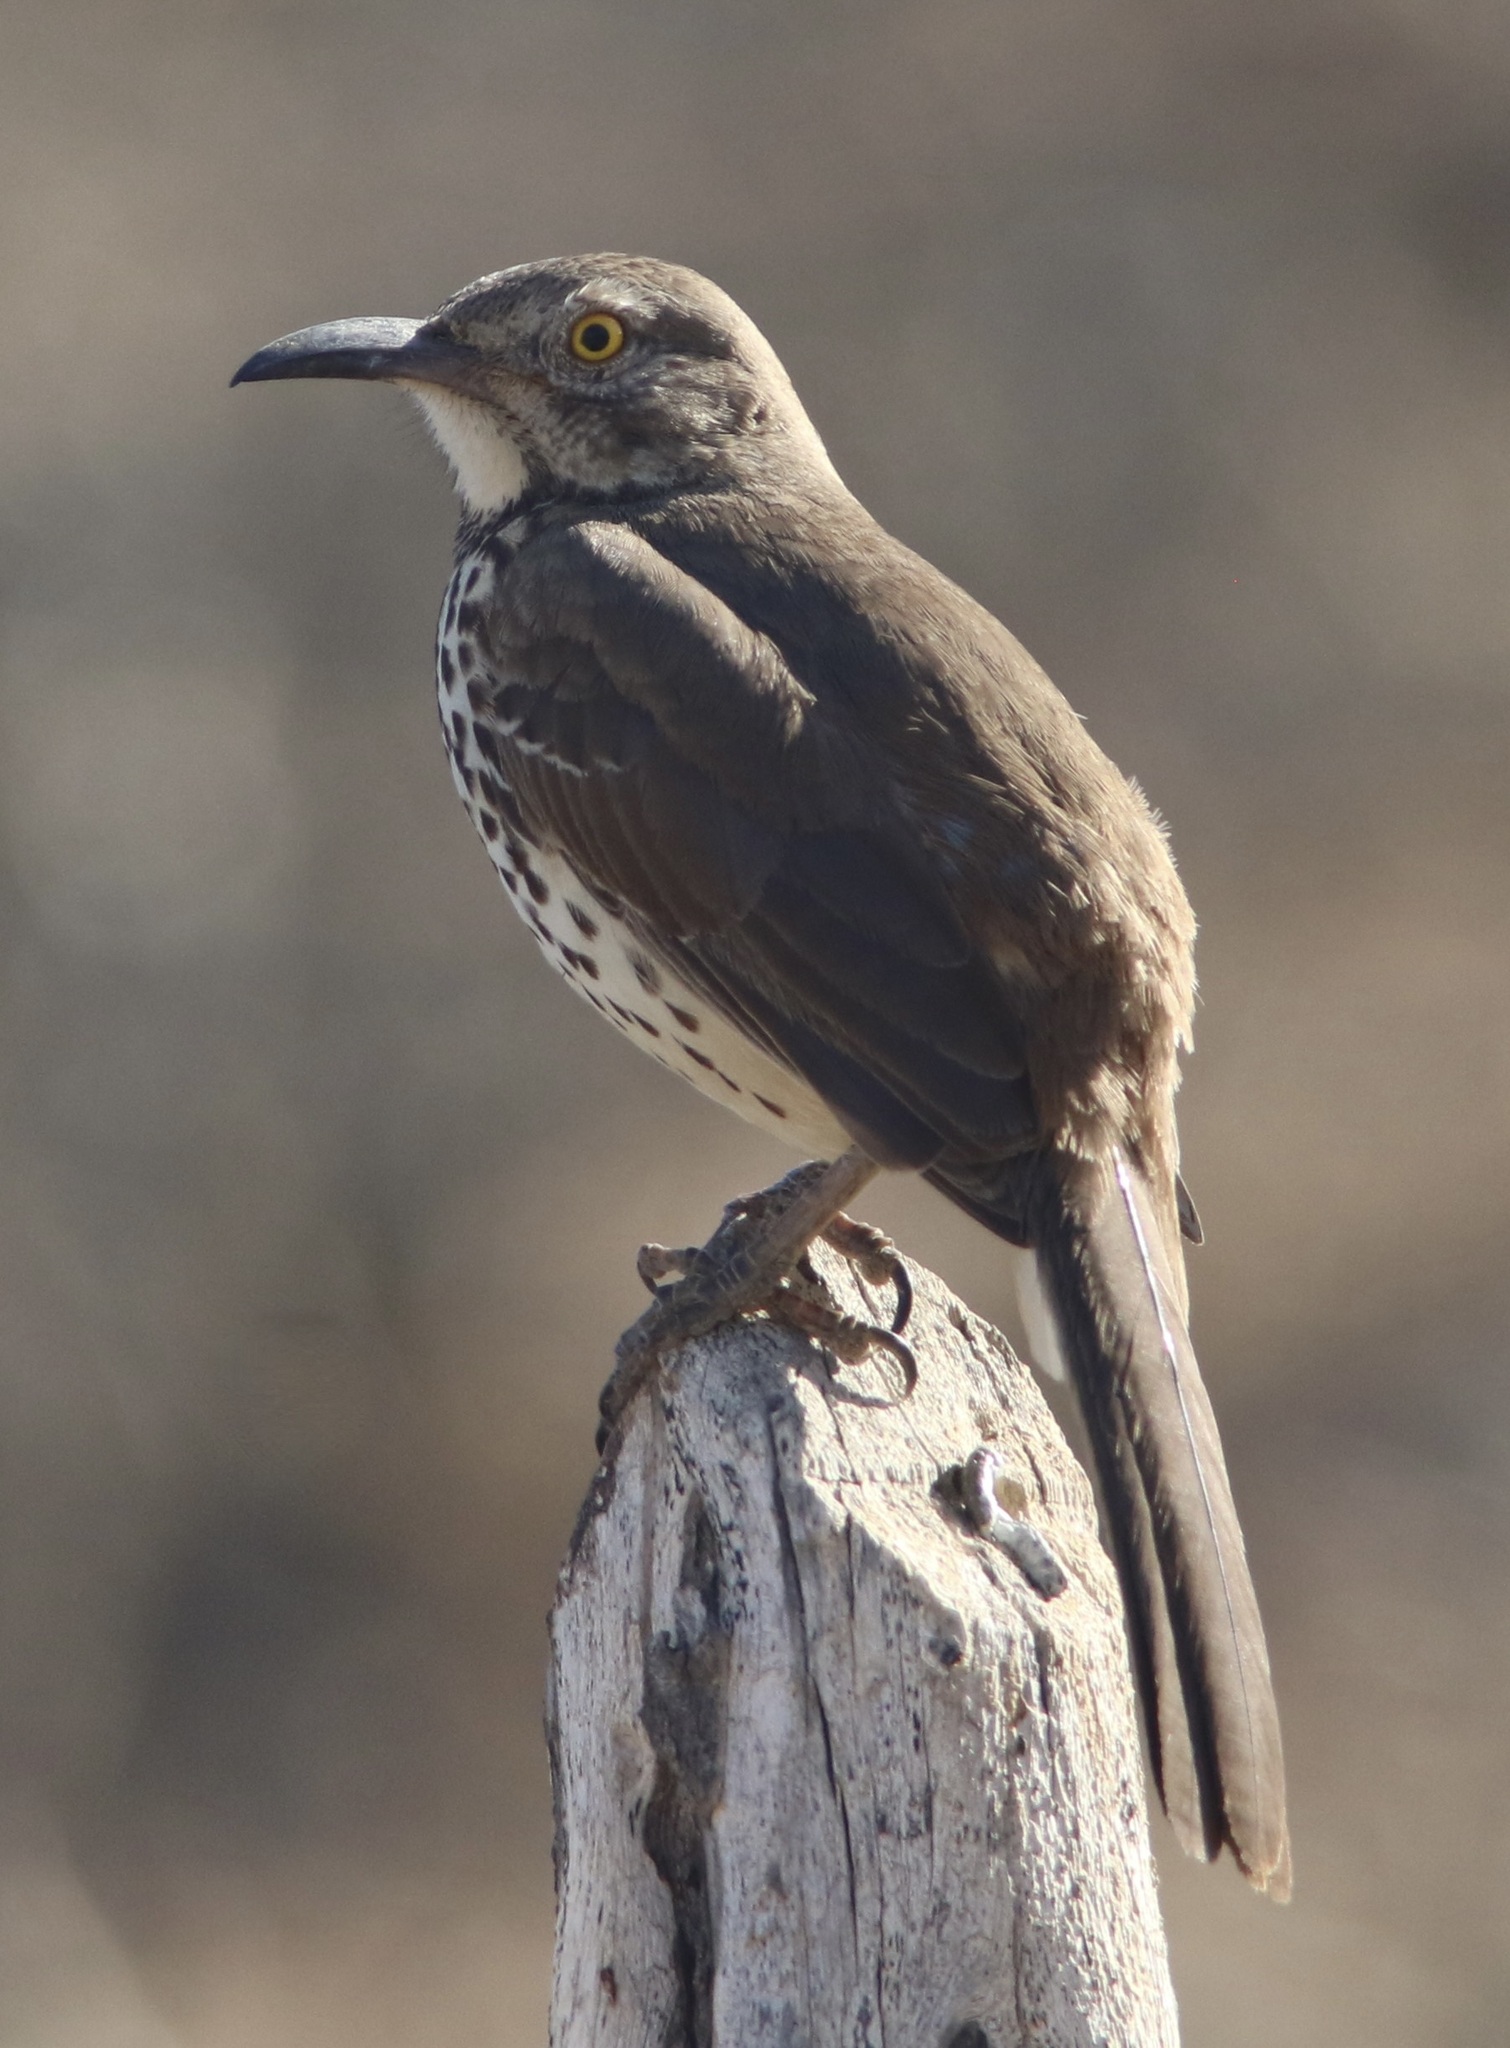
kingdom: Animalia
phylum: Chordata
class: Aves
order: Passeriformes
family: Mimidae
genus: Toxostoma
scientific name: Toxostoma cinereum
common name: Gray thrasher
